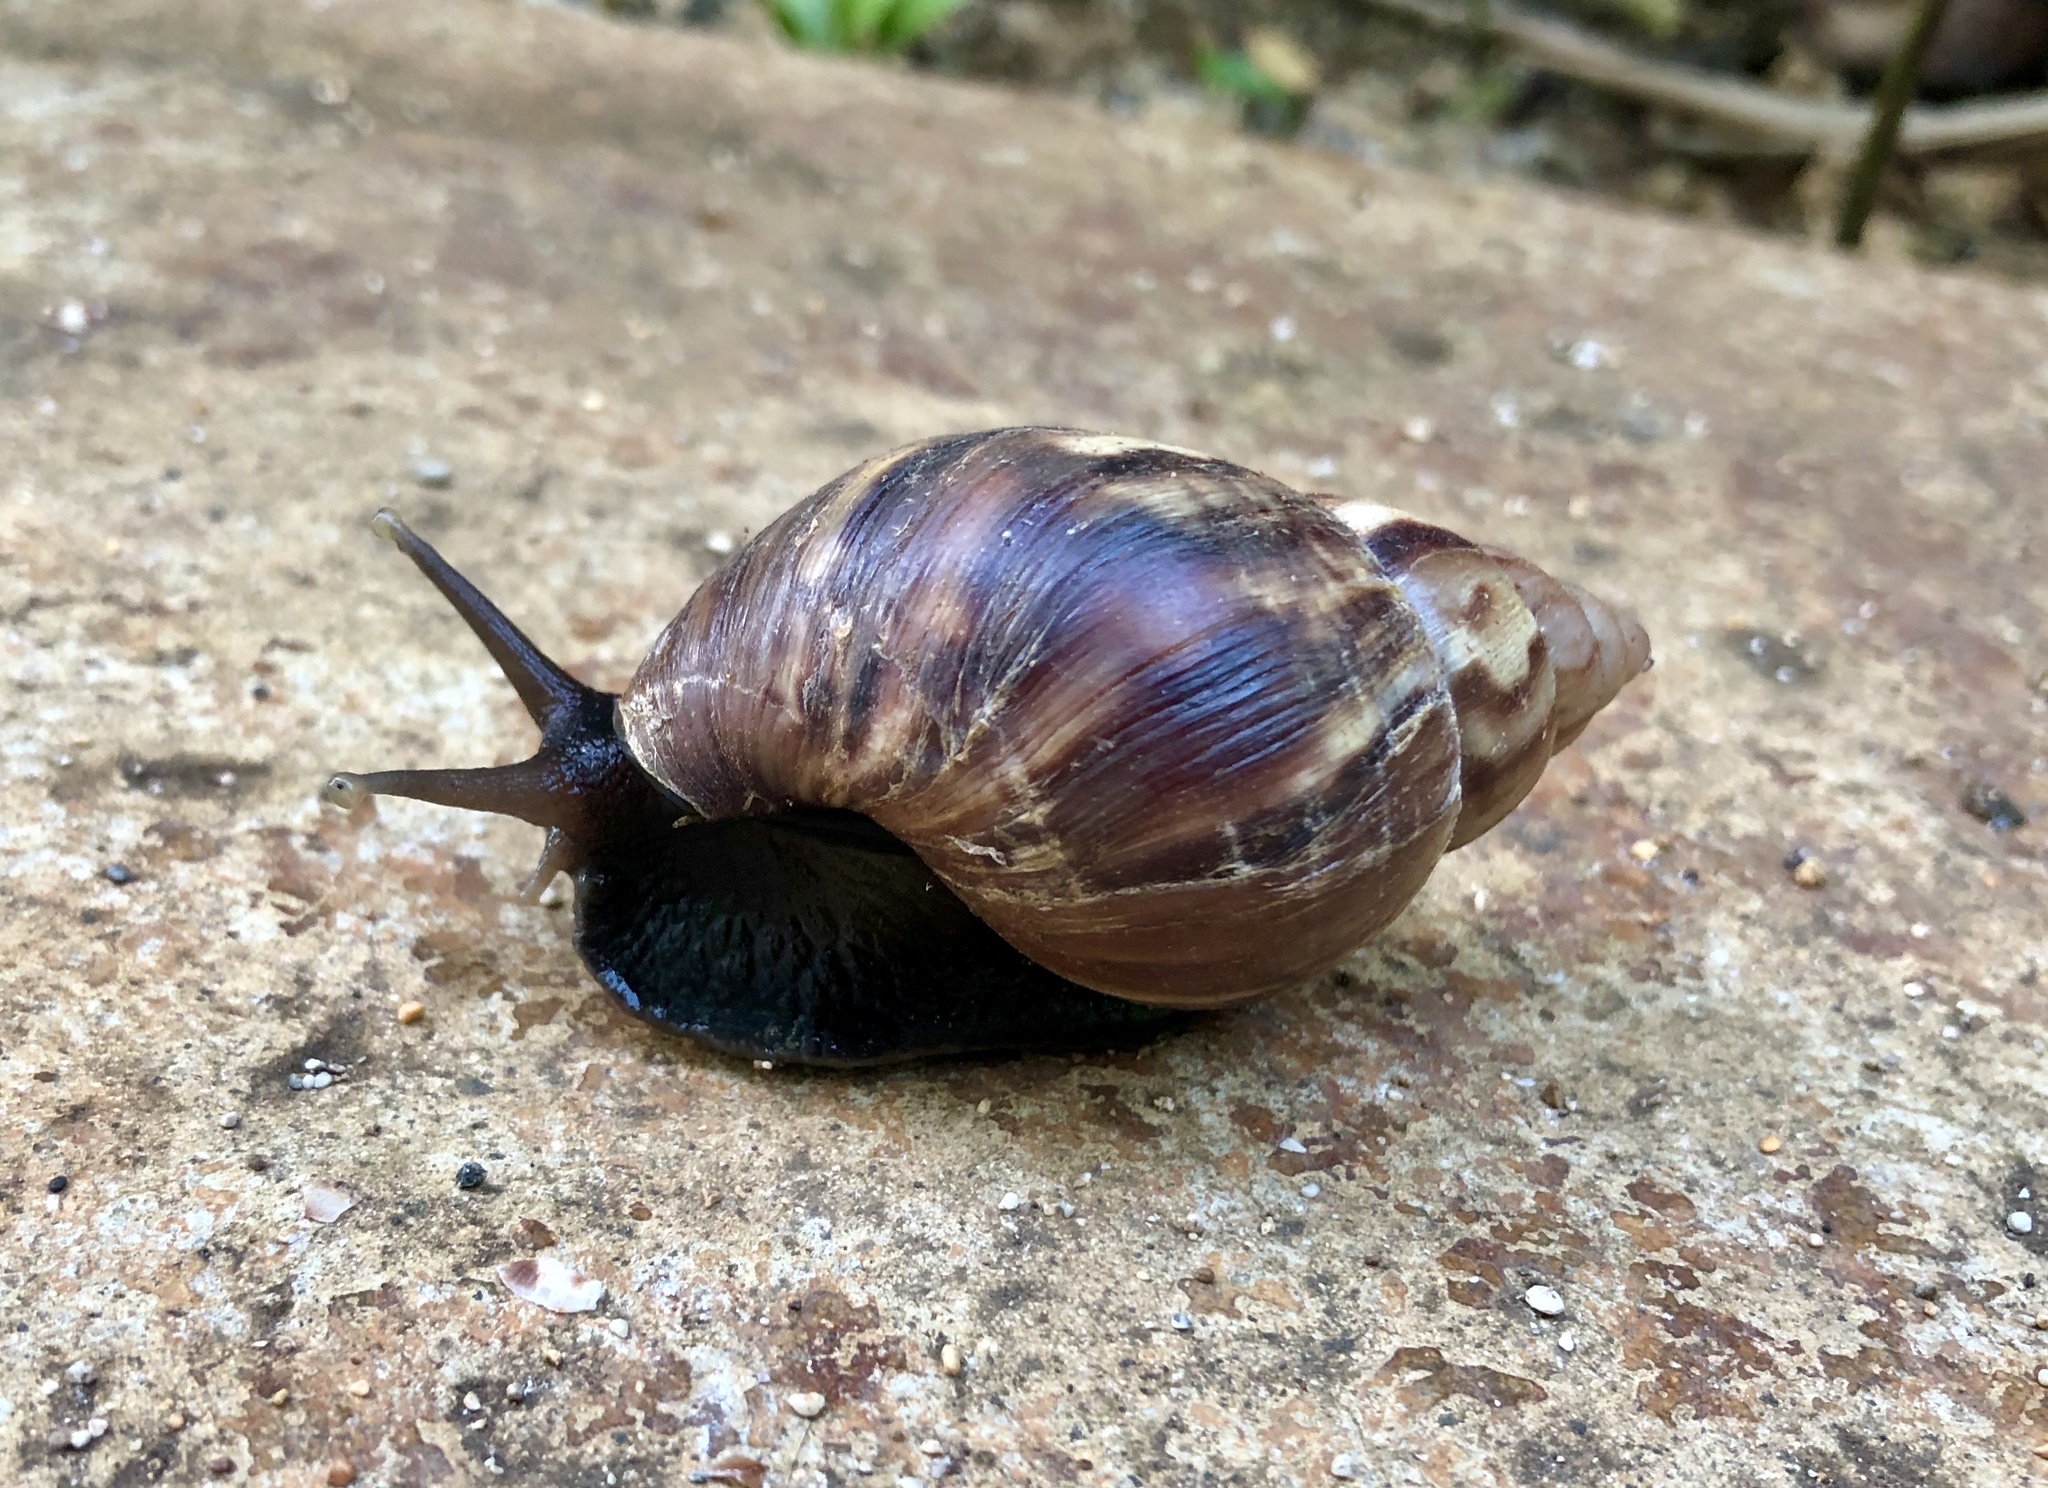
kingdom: Animalia
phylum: Mollusca
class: Gastropoda
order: Stylommatophora
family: Achatinidae
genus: Lissachatina
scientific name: Lissachatina fulica
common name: Giant african snail
